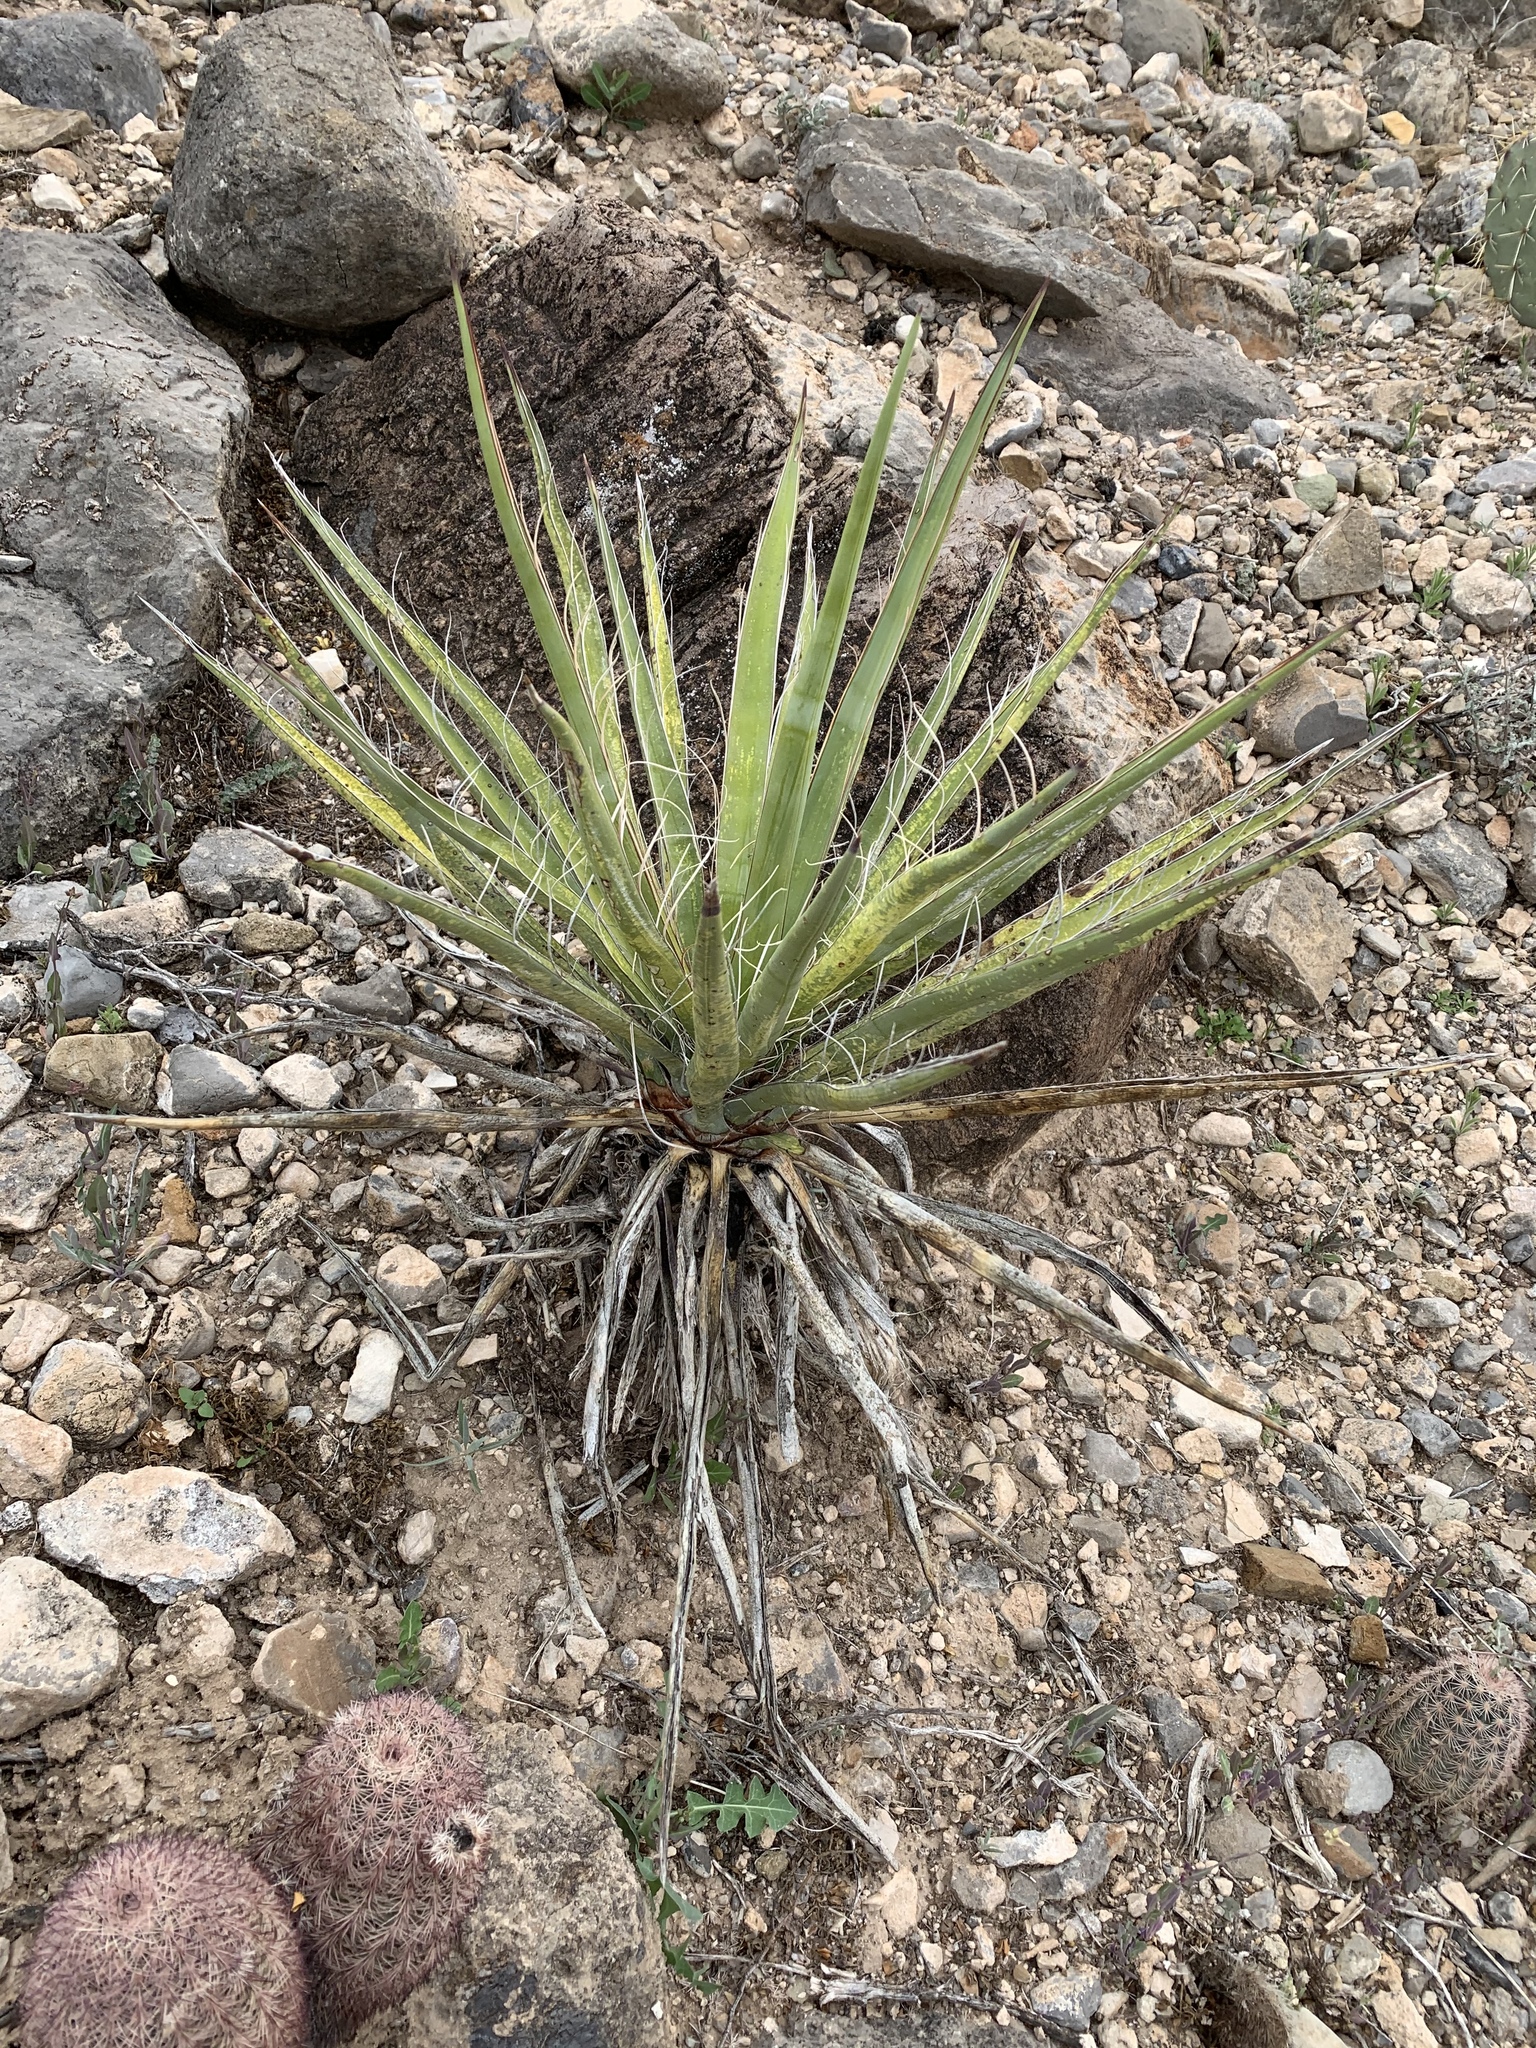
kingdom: Plantae
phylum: Tracheophyta
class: Liliopsida
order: Asparagales
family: Asparagaceae
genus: Yucca
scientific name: Yucca baccata
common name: Banana yucca
